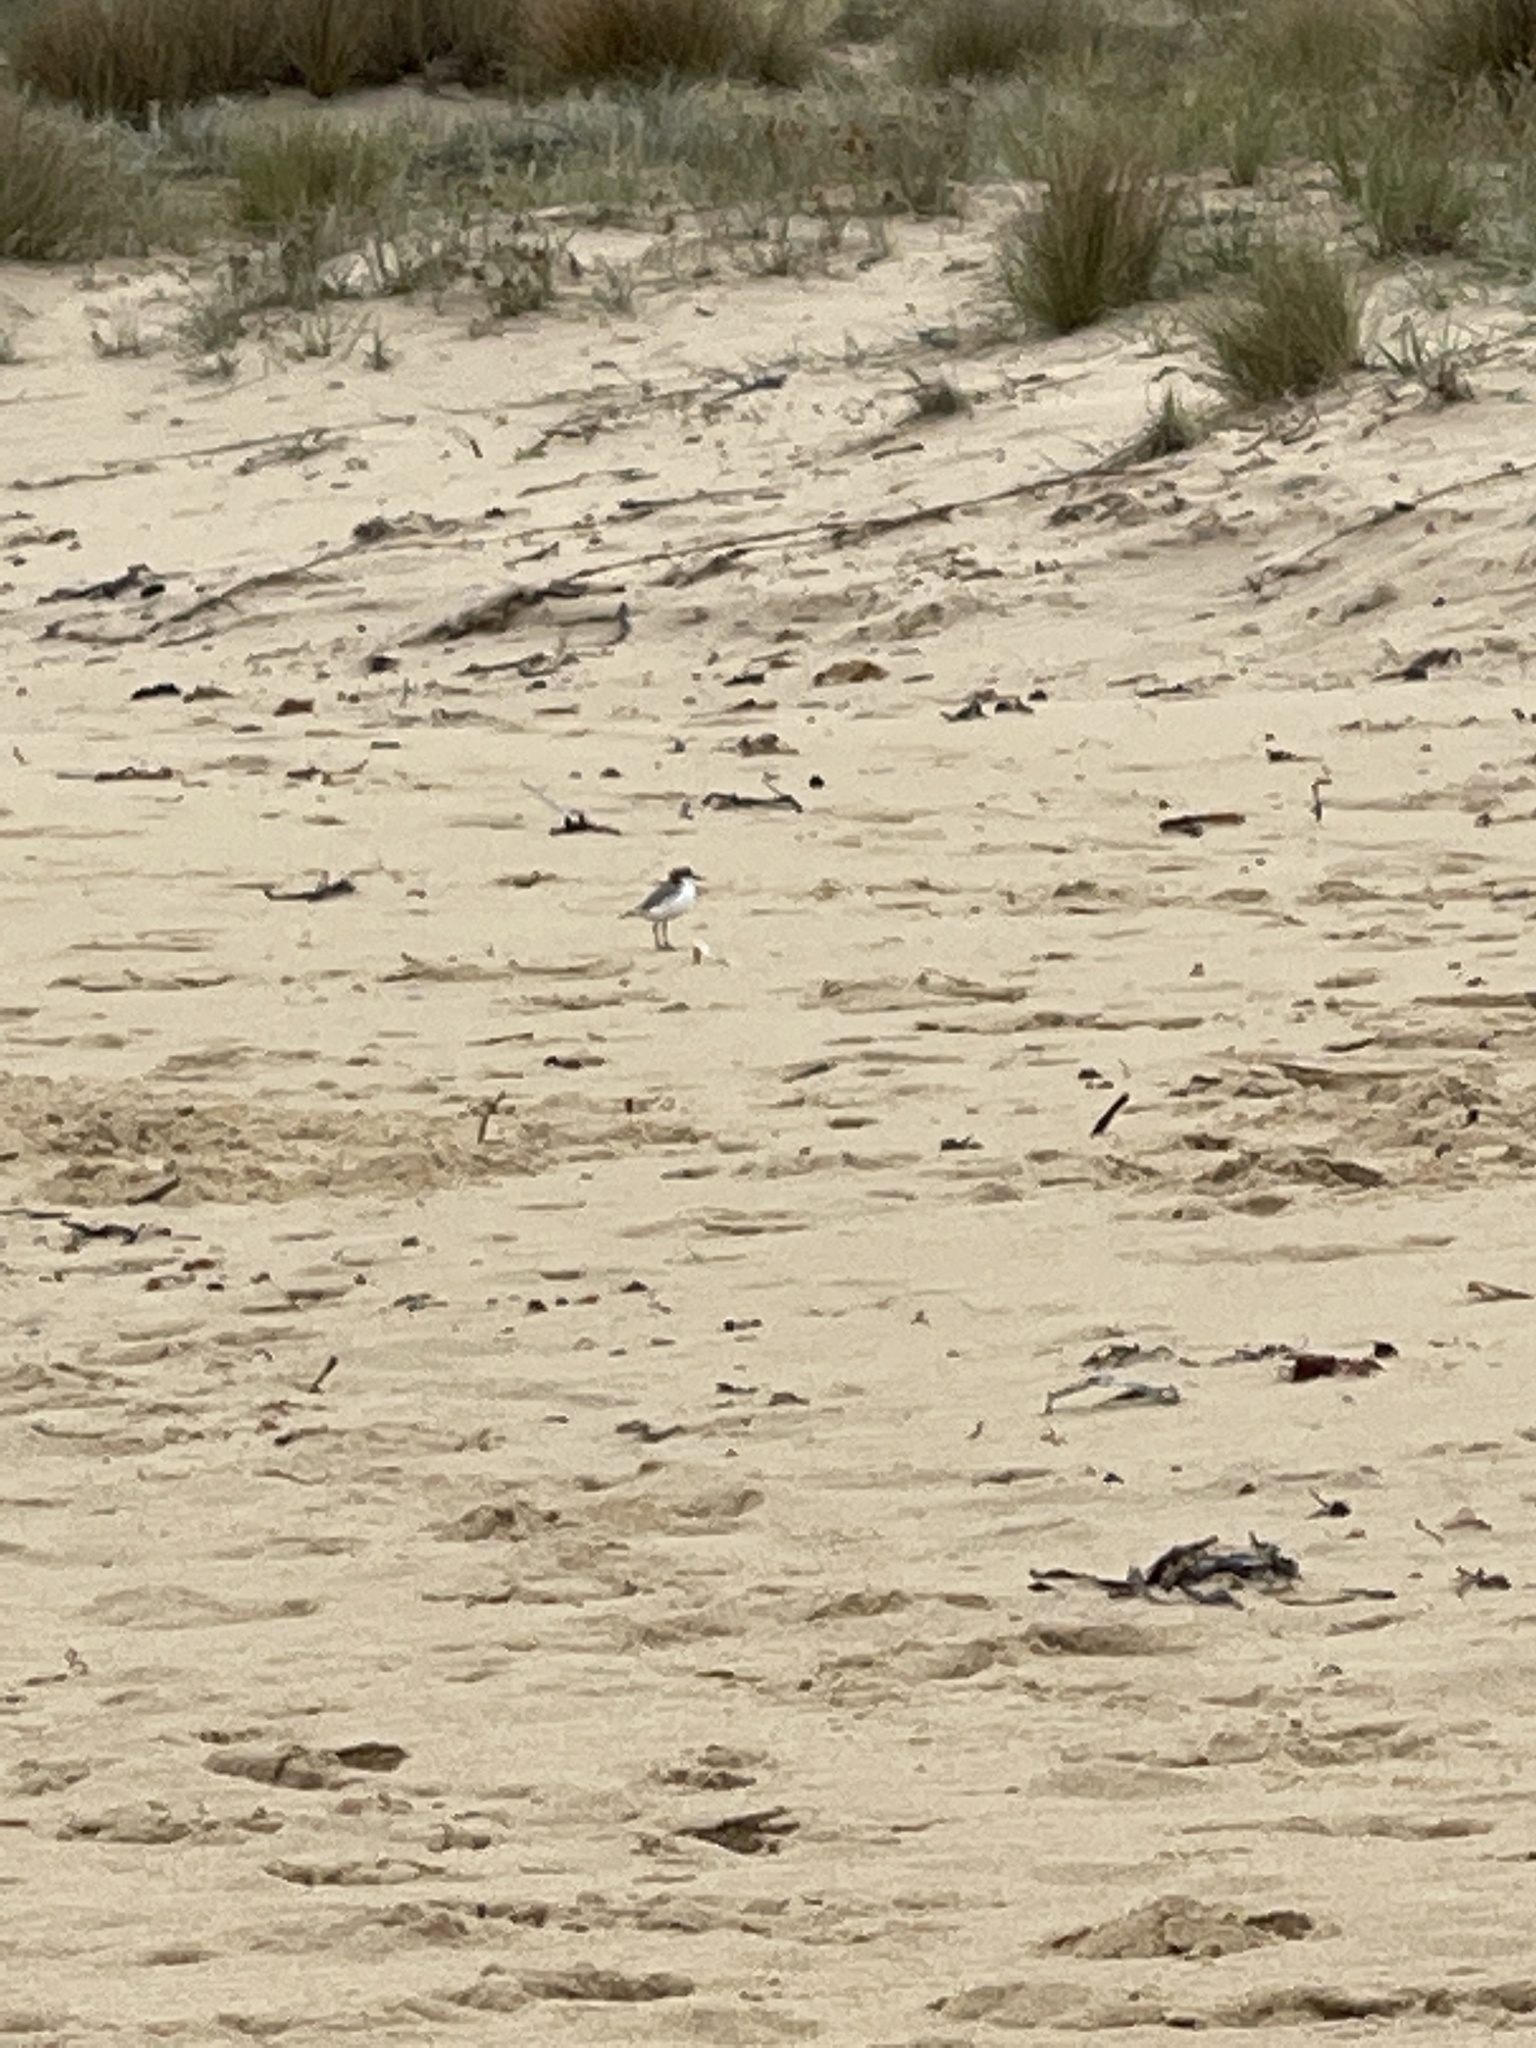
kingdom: Animalia
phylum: Chordata
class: Aves
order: Charadriiformes
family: Charadriidae
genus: Anarhynchus
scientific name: Anarhynchus
